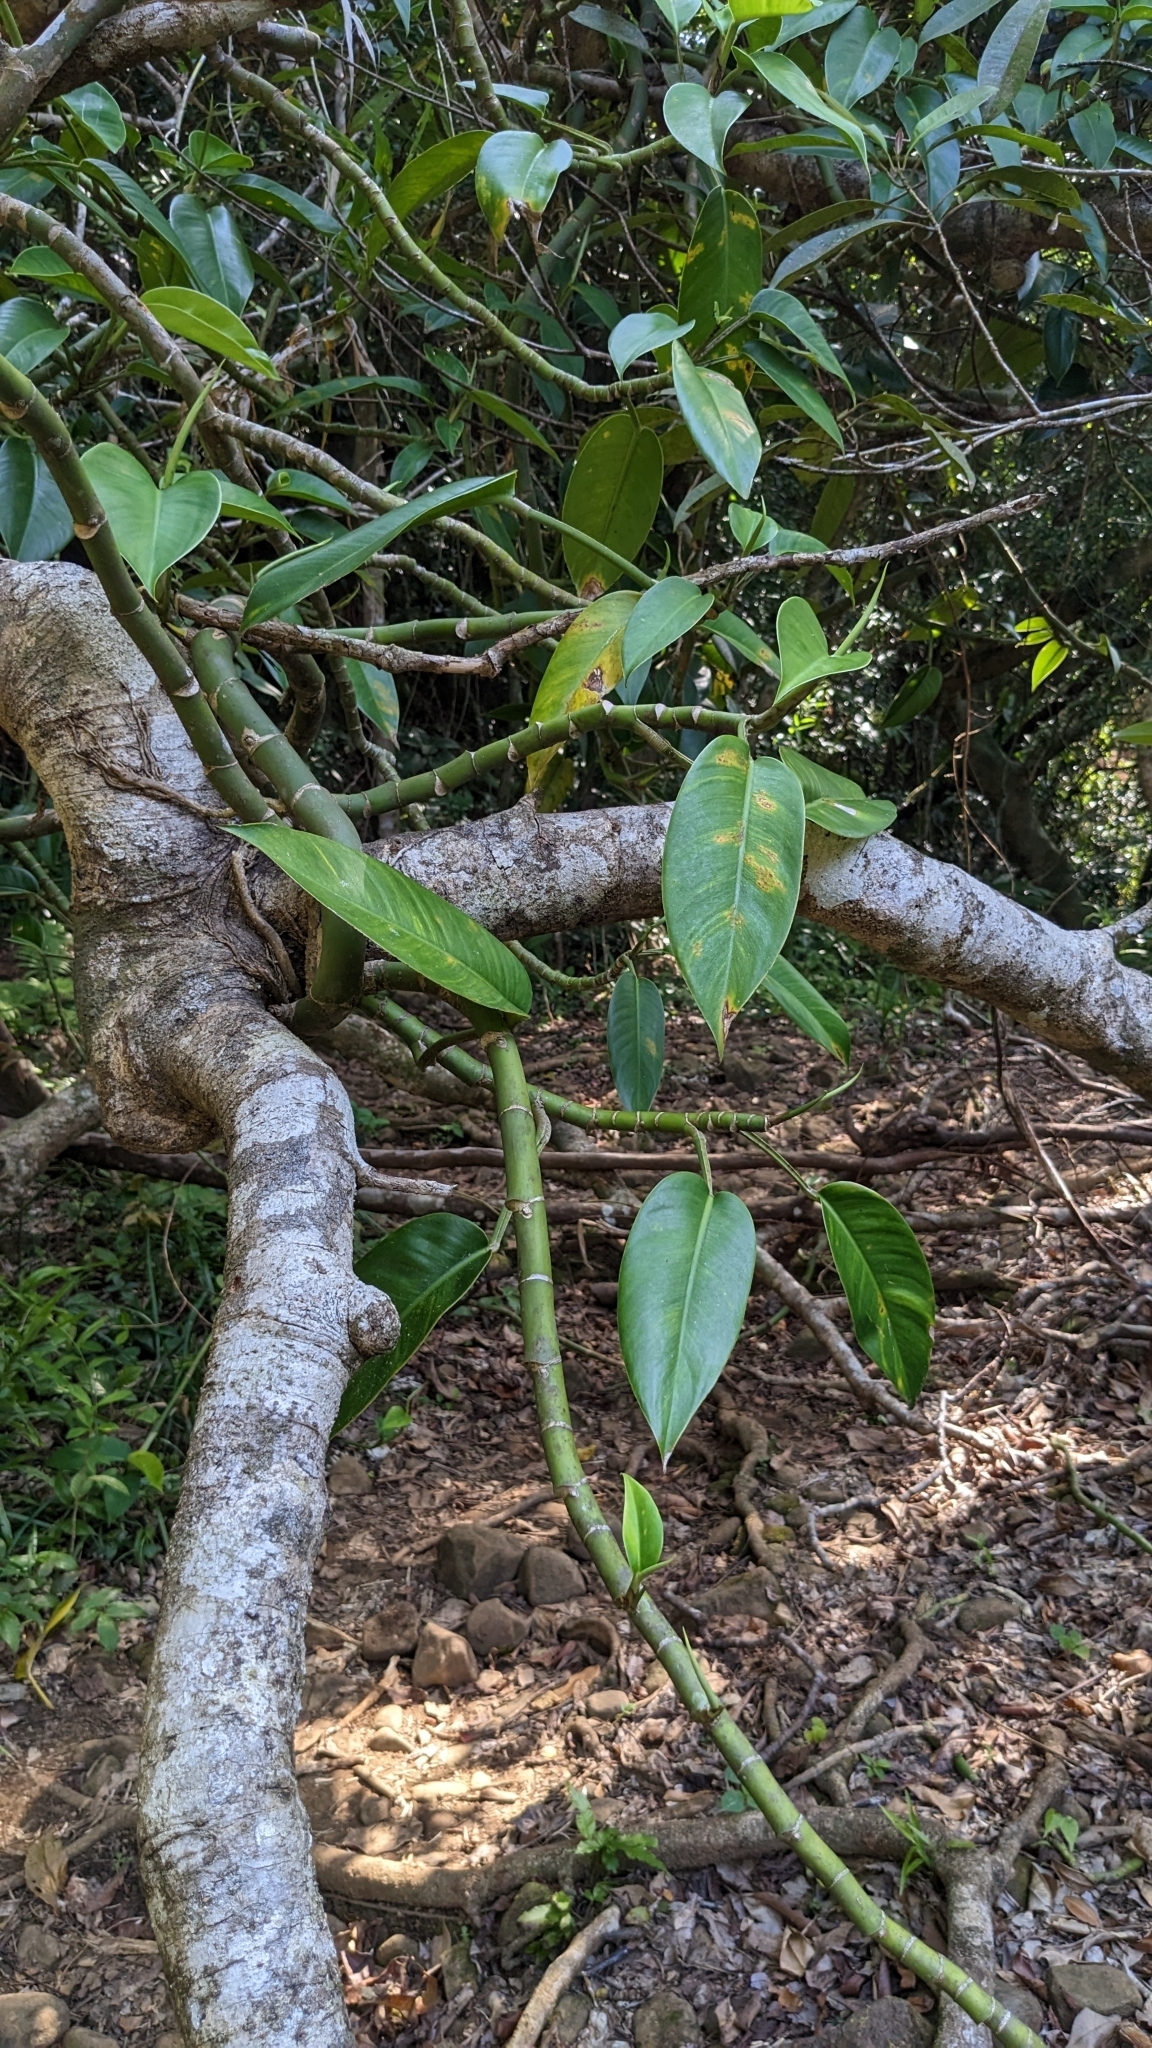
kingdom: Plantae
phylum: Tracheophyta
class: Liliopsida
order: Alismatales
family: Araceae
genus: Rhaphidophora
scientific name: Rhaphidophora liukiuensis
